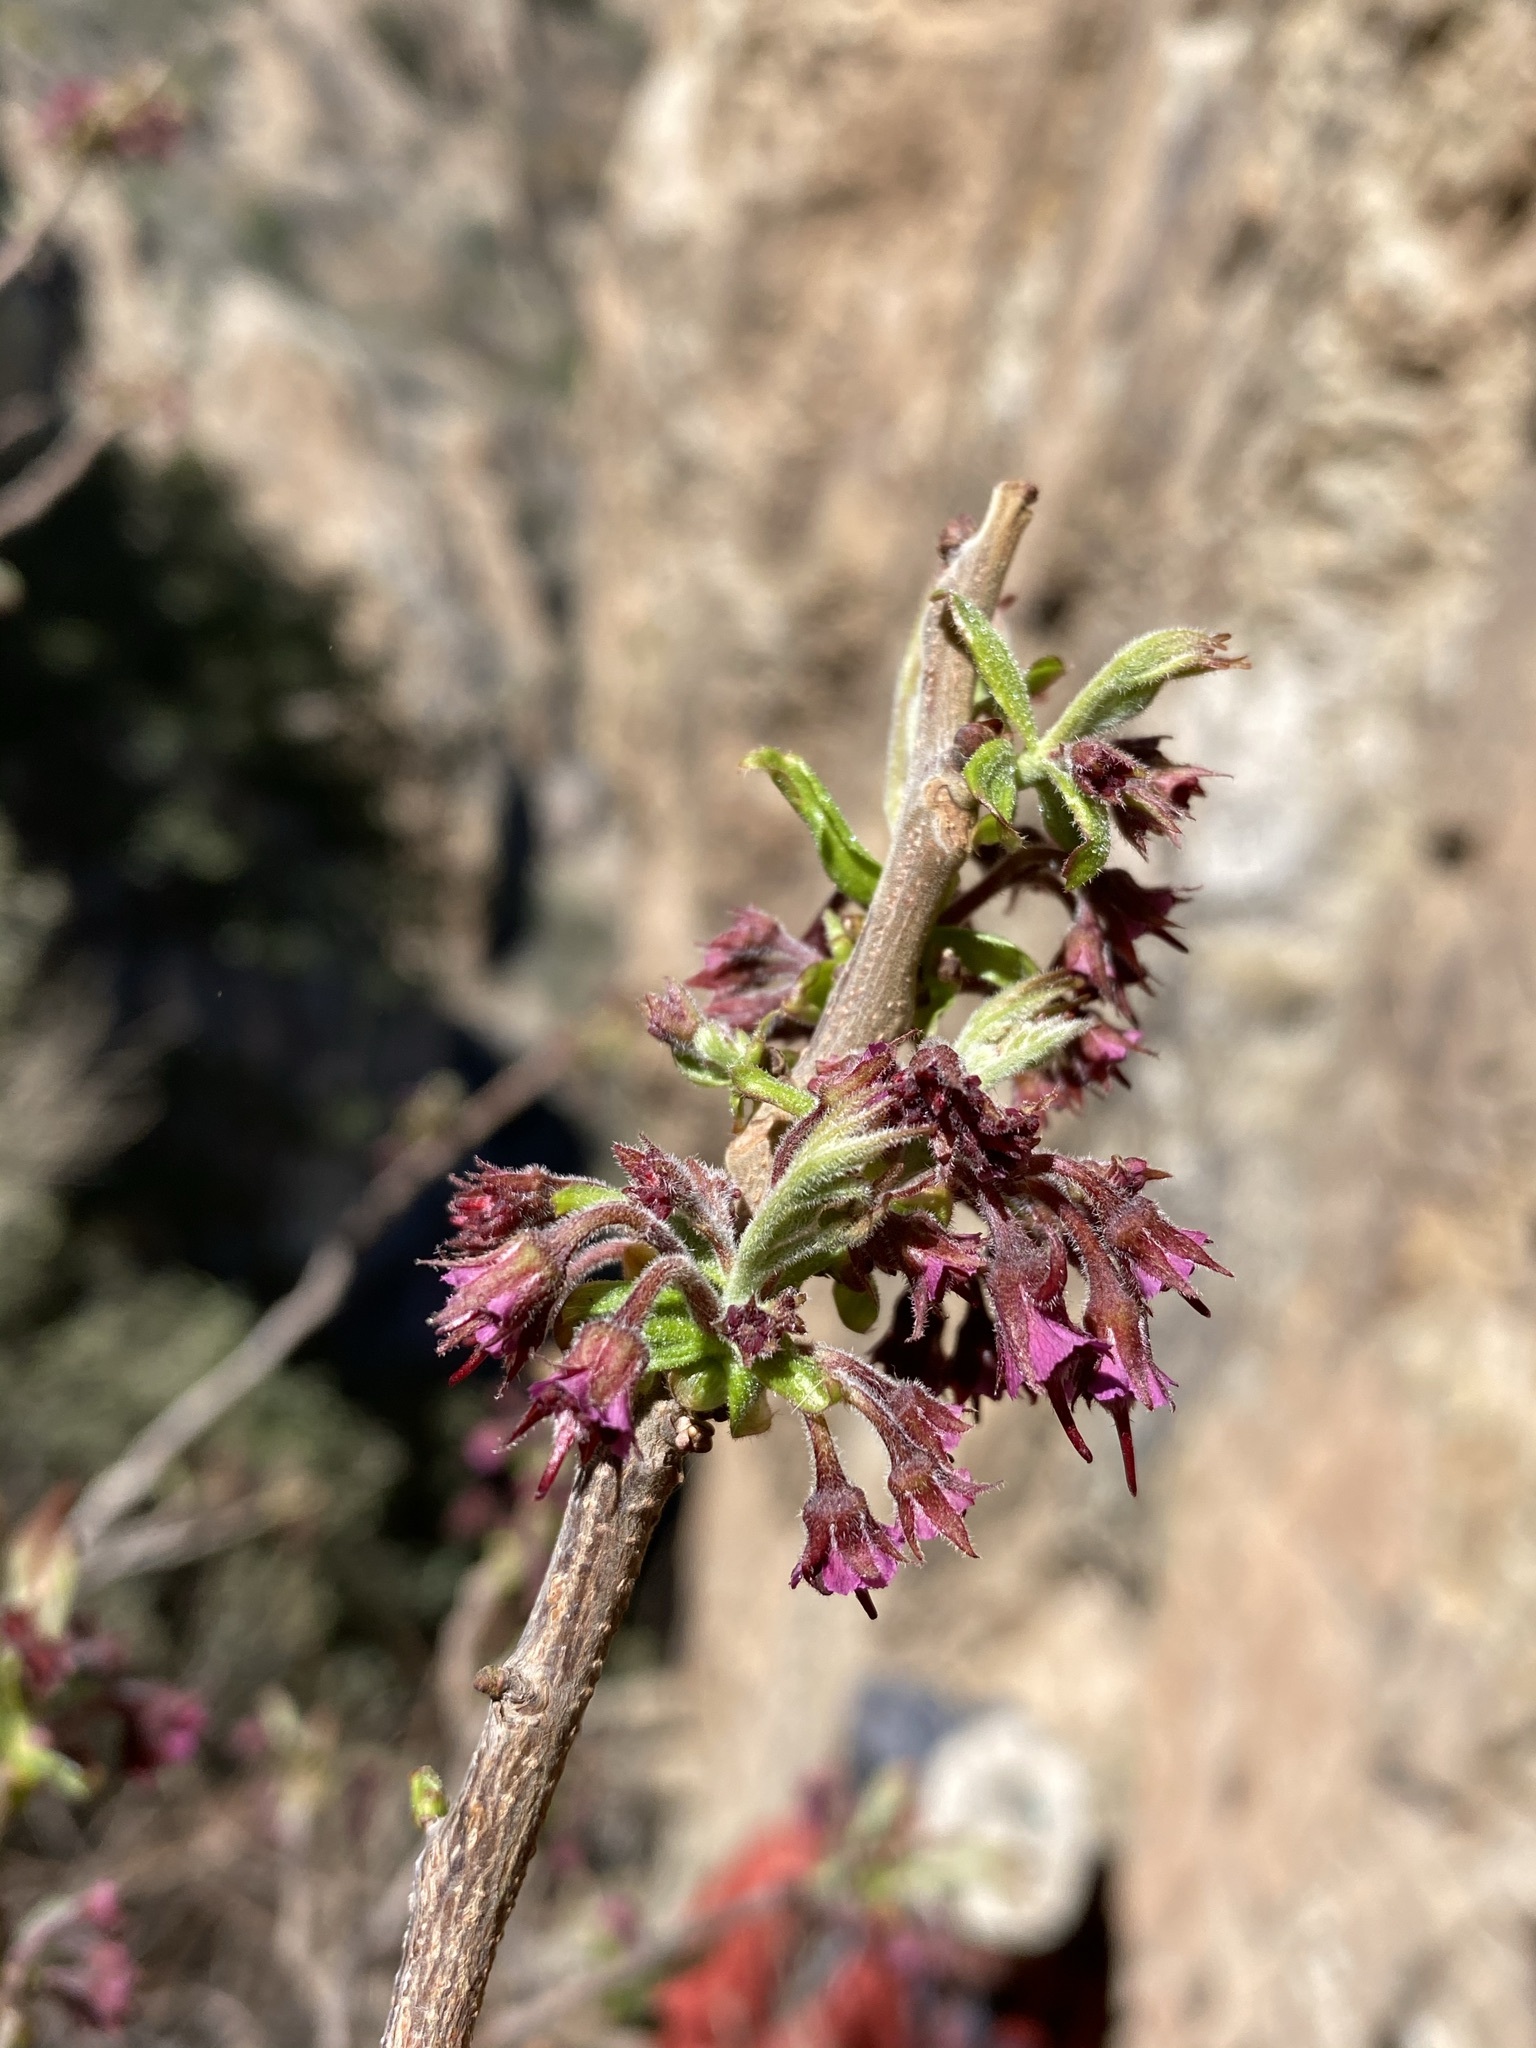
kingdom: Plantae
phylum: Tracheophyta
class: Magnoliopsida
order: Sapindales
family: Sapindaceae
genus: Ungnadia
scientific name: Ungnadia speciosa
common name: Texas-buckeye
